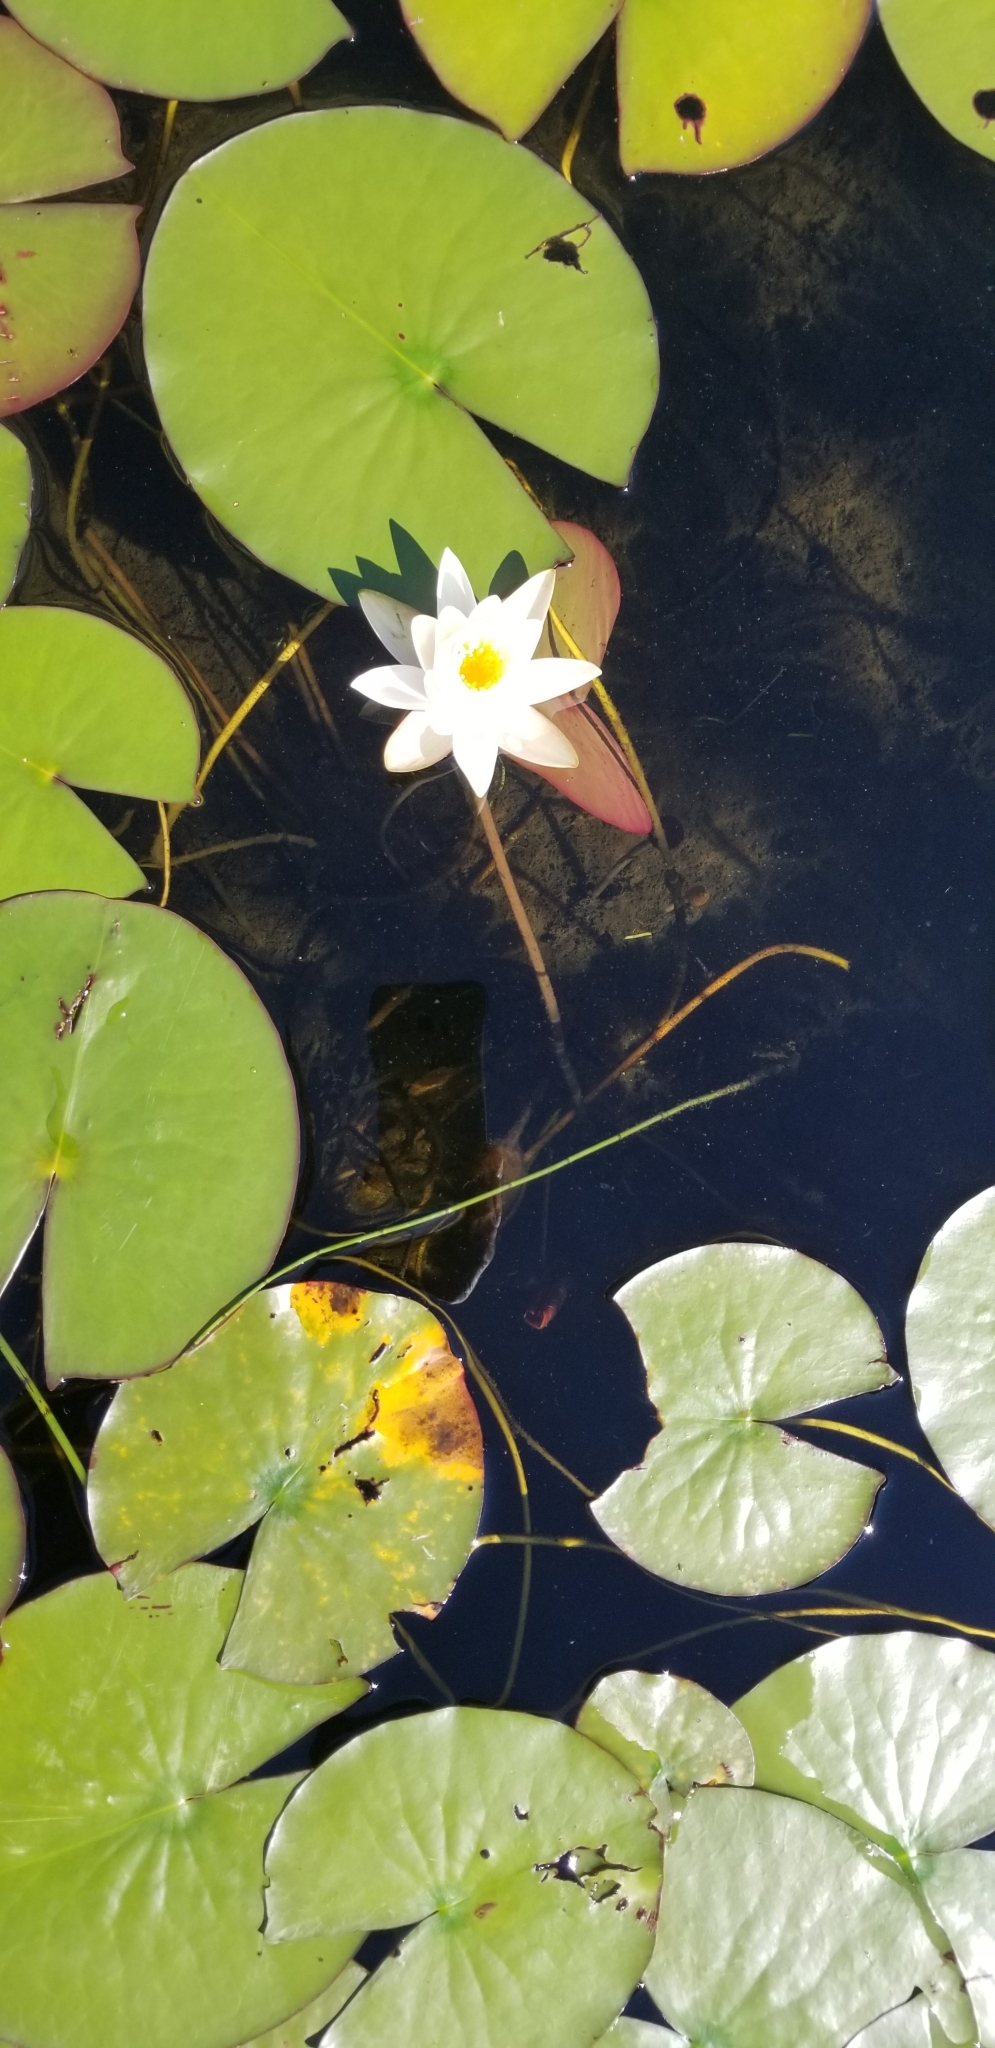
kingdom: Plantae
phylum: Tracheophyta
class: Magnoliopsida
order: Nymphaeales
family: Nymphaeaceae
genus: Nymphaea
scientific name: Nymphaea odorata
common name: Fragrant water-lily
